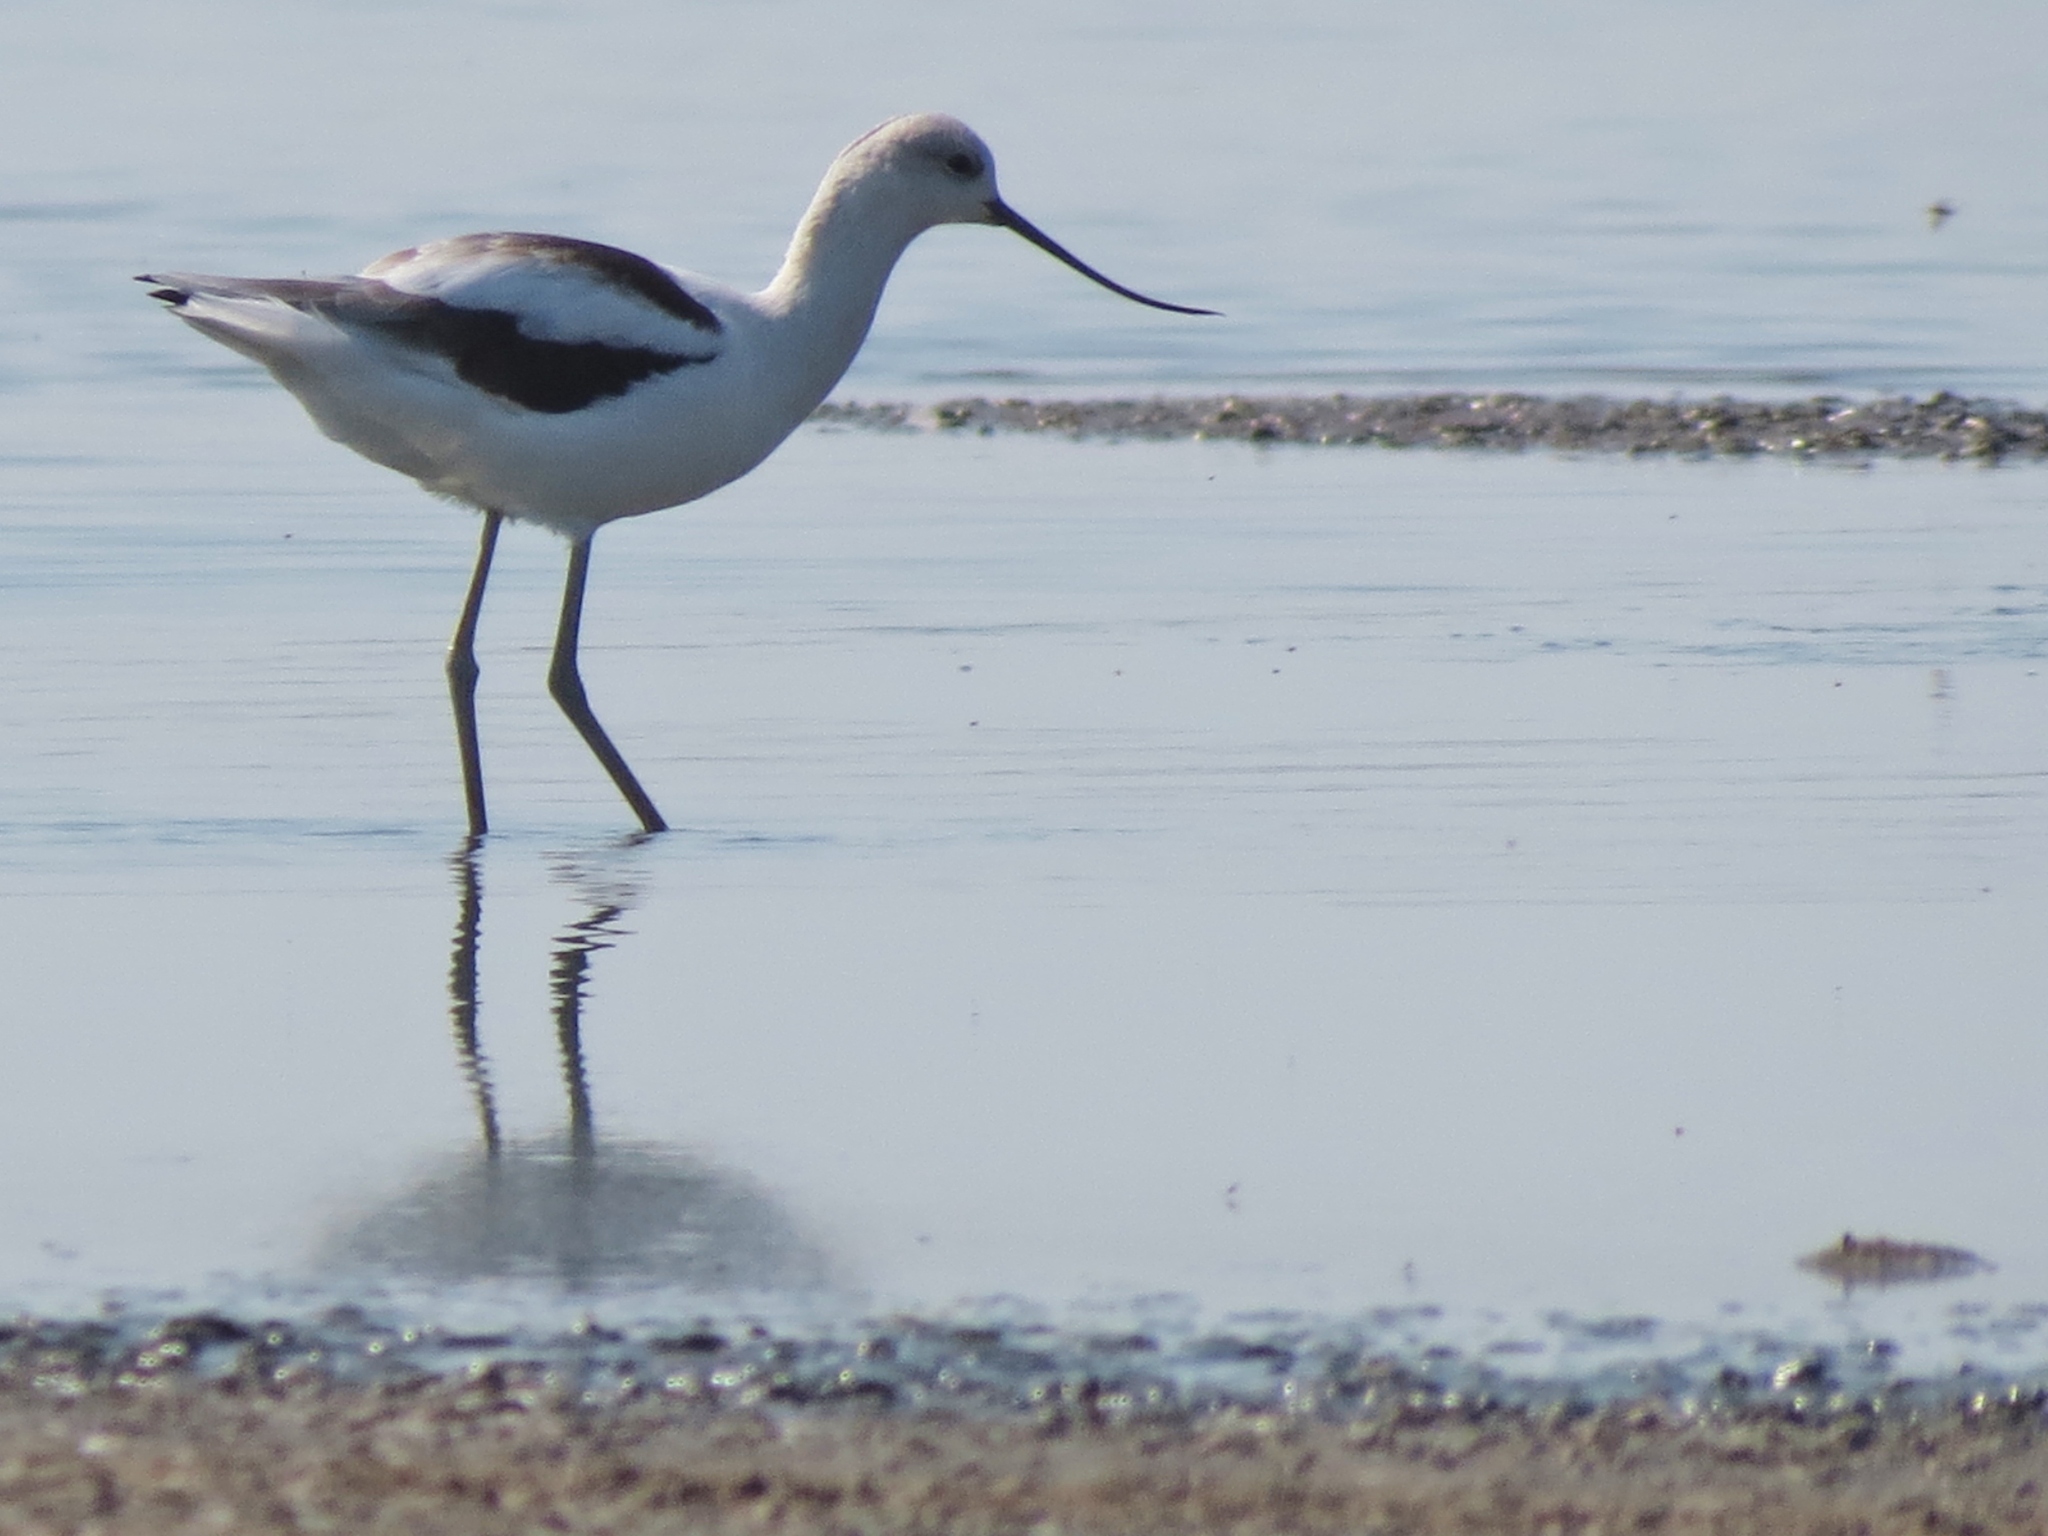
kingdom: Animalia
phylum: Chordata
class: Aves
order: Charadriiformes
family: Recurvirostridae
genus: Recurvirostra
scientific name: Recurvirostra americana
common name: American avocet
